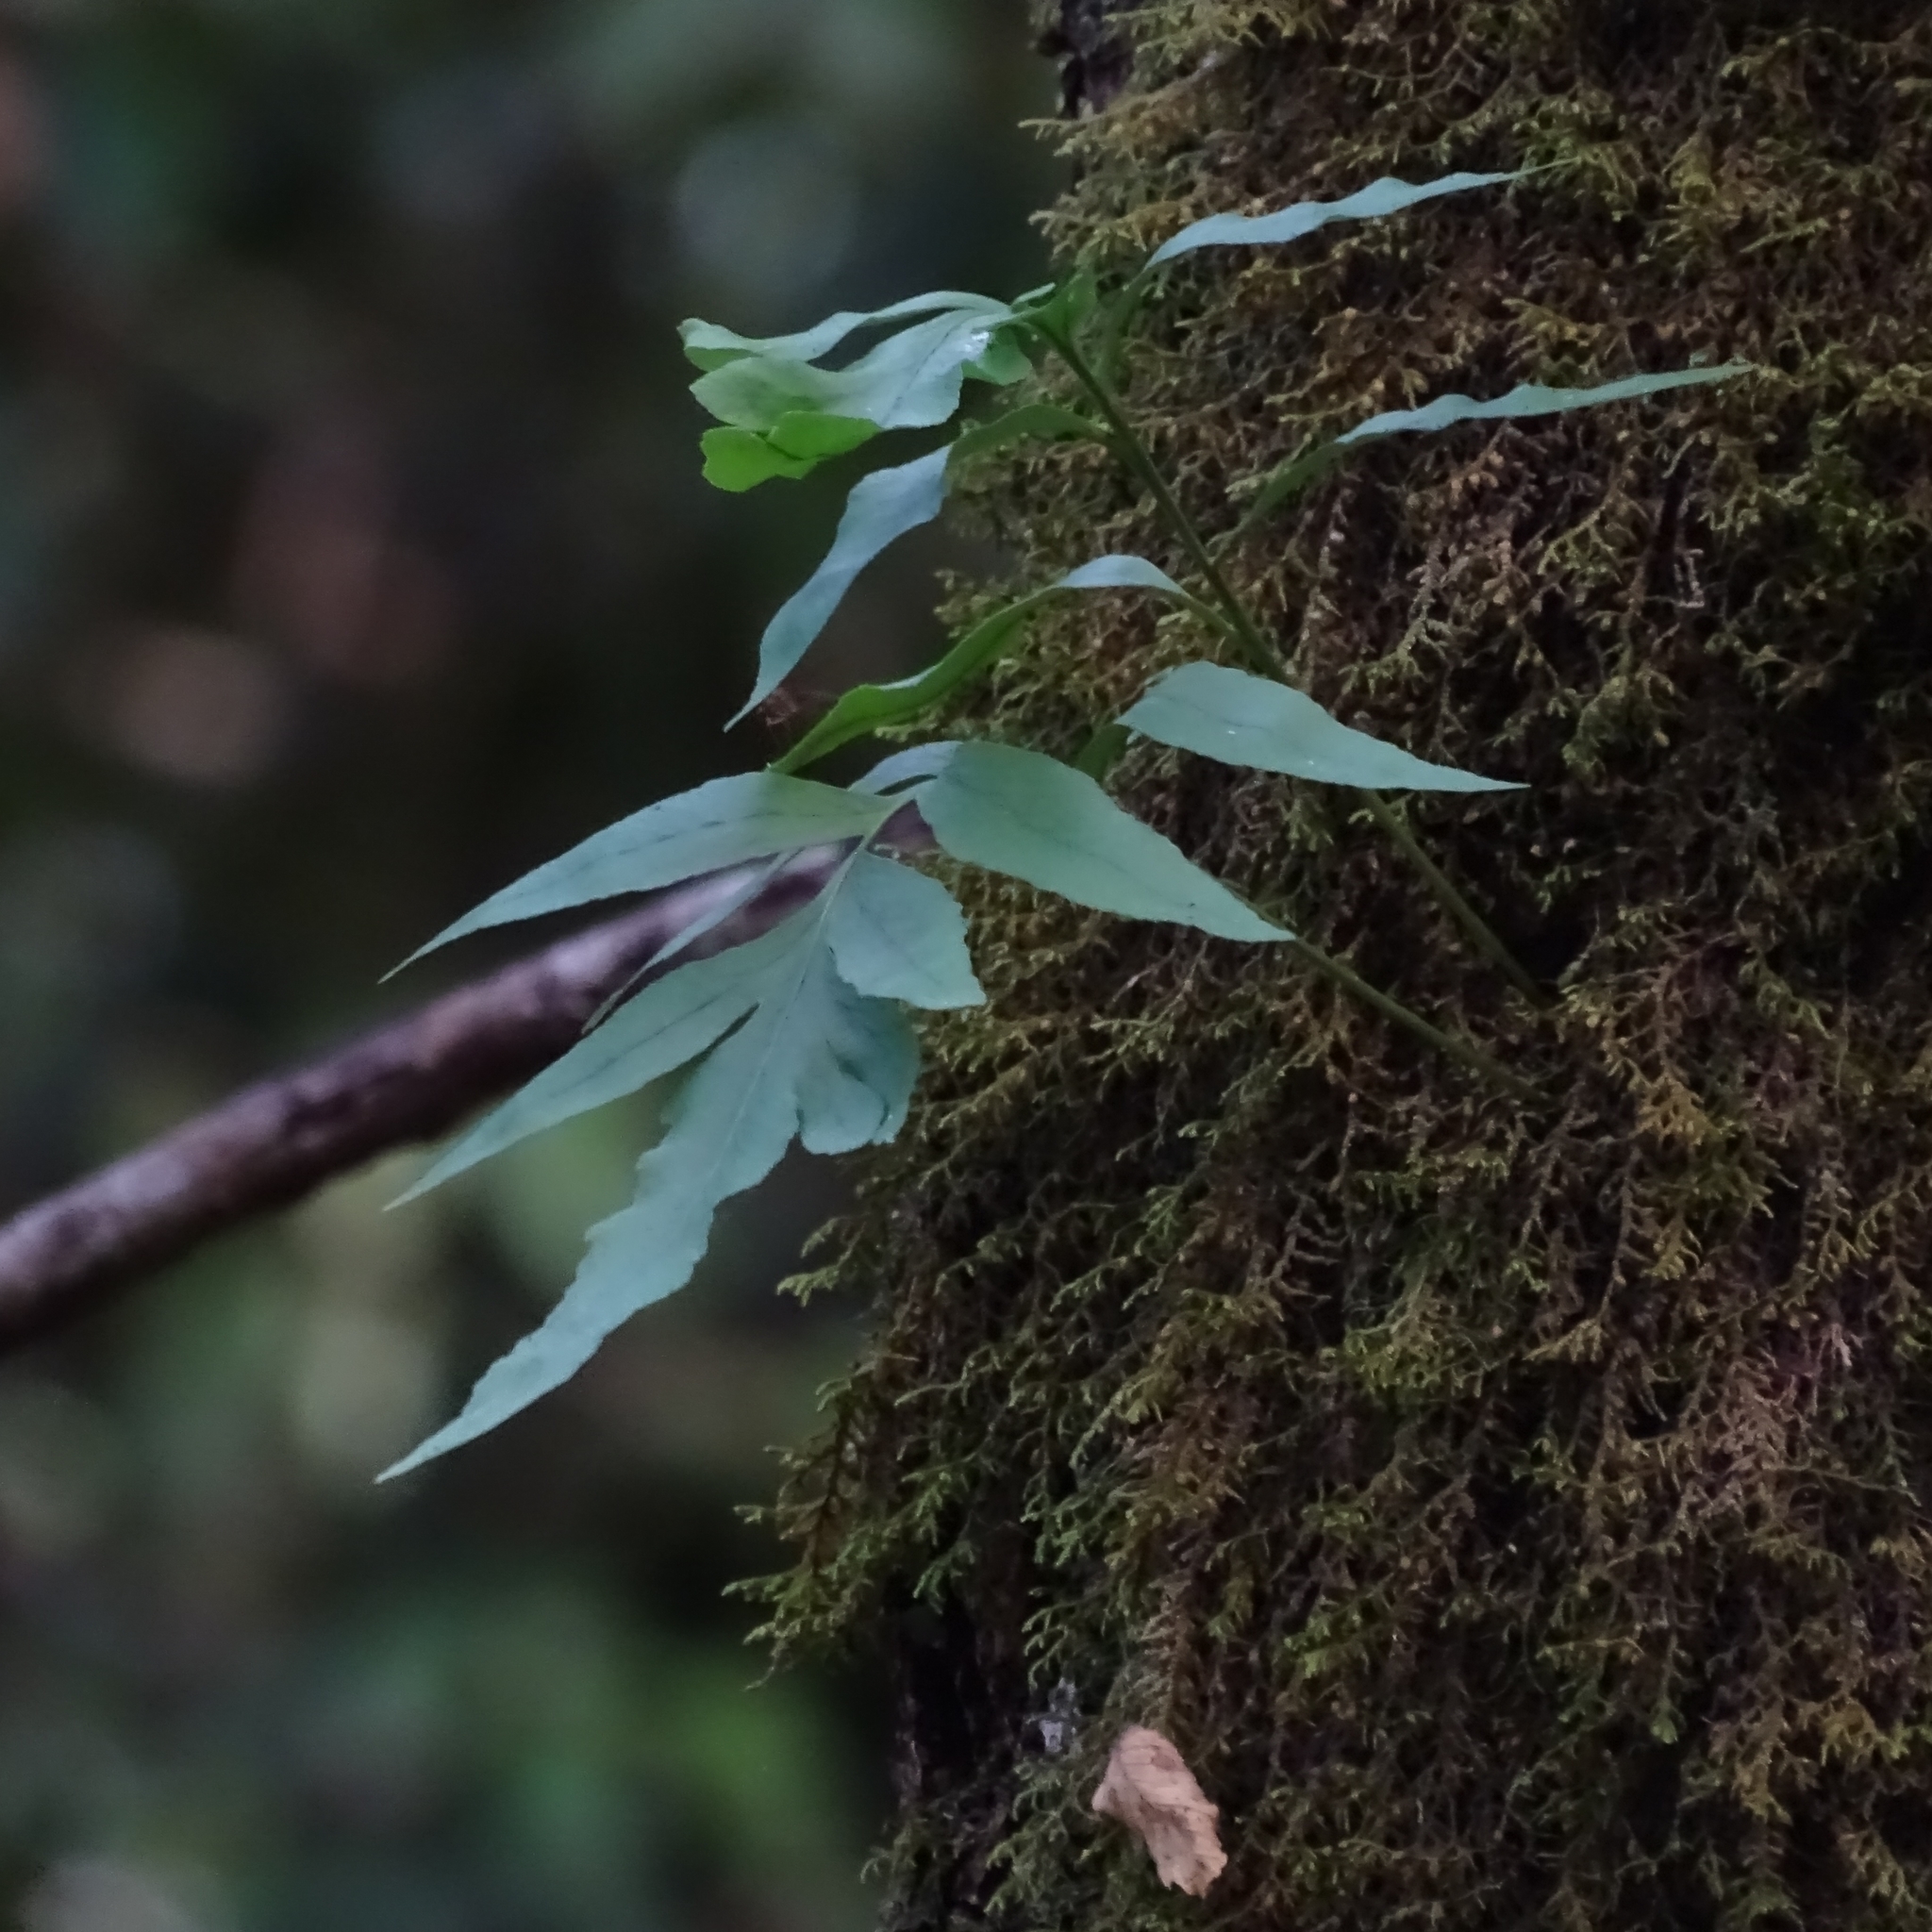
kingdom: Plantae
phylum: Tracheophyta
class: Polypodiopsida
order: Polypodiales
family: Polypodiaceae
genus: Synammia
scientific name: Synammia feuillei
